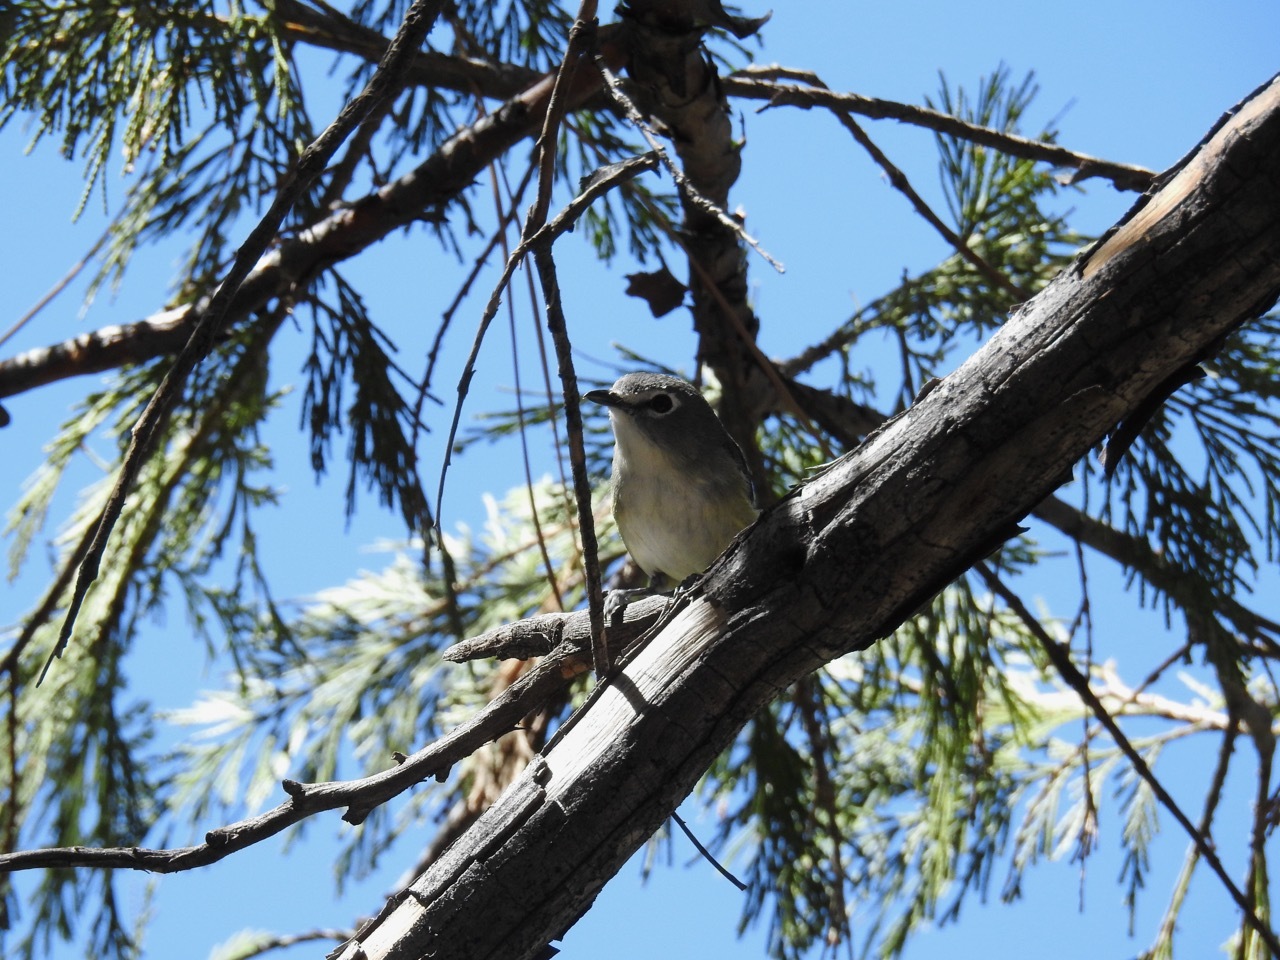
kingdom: Animalia
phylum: Chordata
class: Aves
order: Passeriformes
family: Vireonidae
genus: Vireo
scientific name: Vireo cassinii
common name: Cassin's vireo
